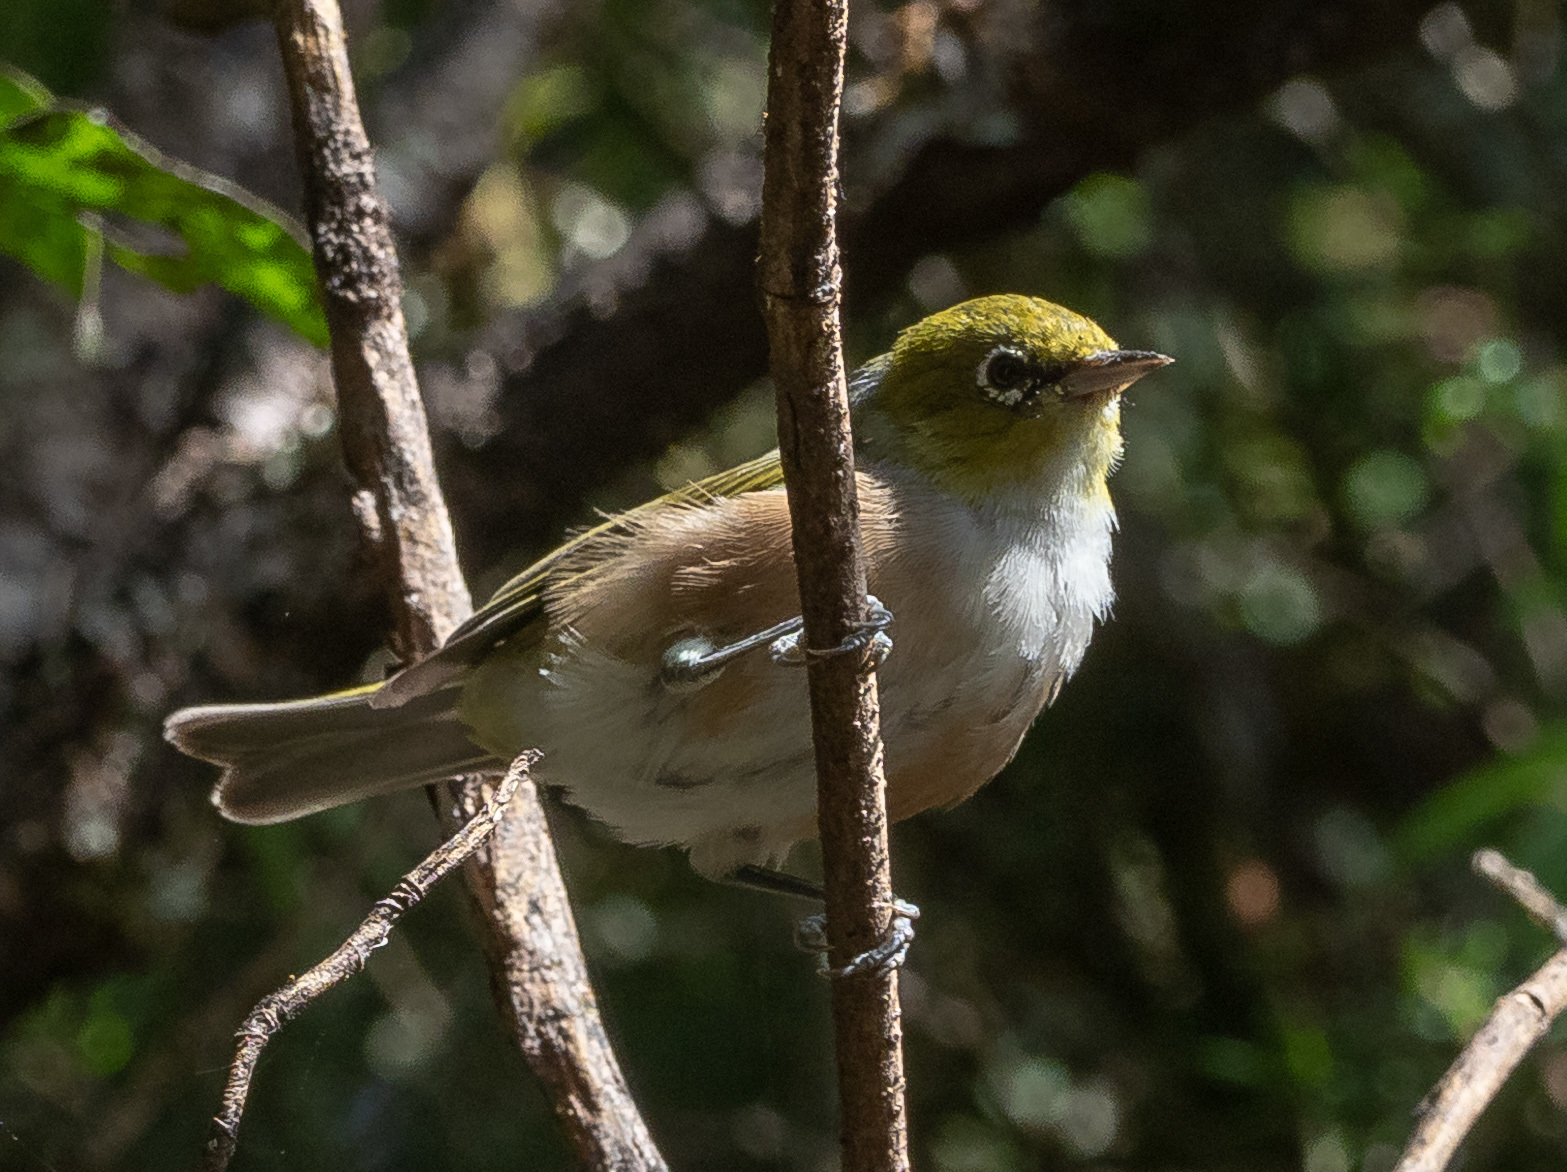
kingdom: Animalia
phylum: Chordata
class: Aves
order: Passeriformes
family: Zosteropidae
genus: Zosterops
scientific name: Zosterops lateralis
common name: Silvereye
